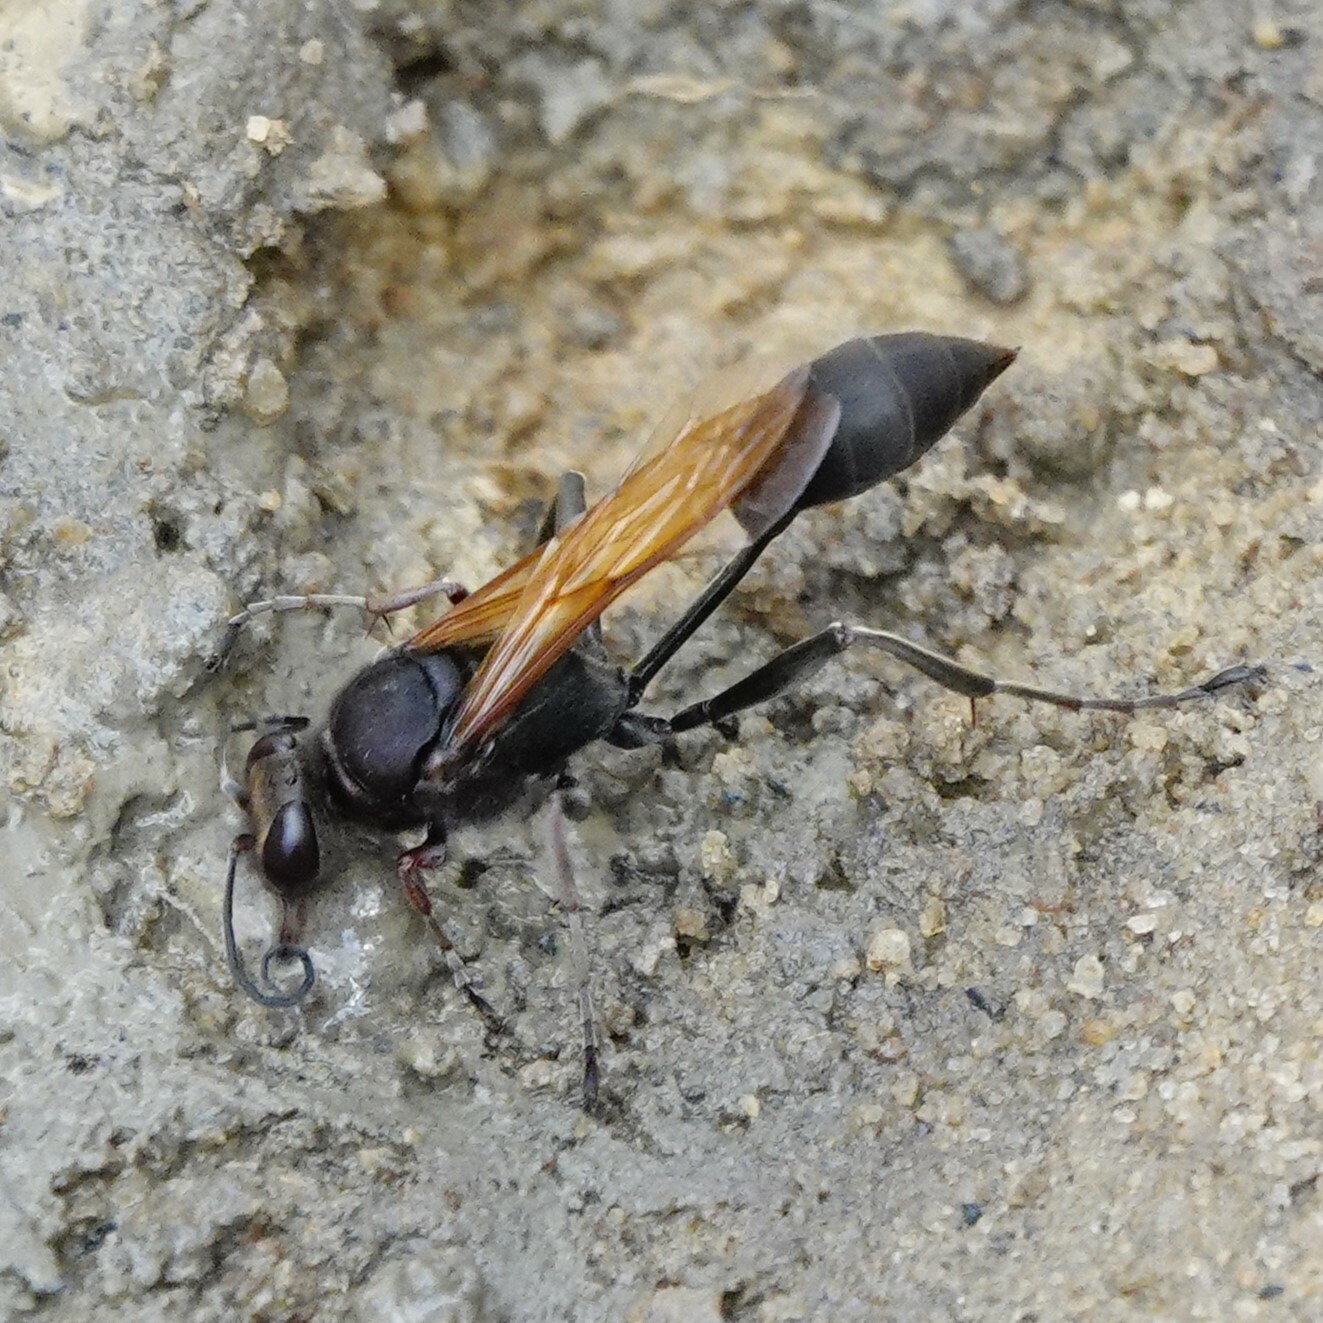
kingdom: Animalia
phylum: Arthropoda
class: Insecta
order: Hymenoptera
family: Sphecidae
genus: Sceliphron
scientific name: Sceliphron fuscum
